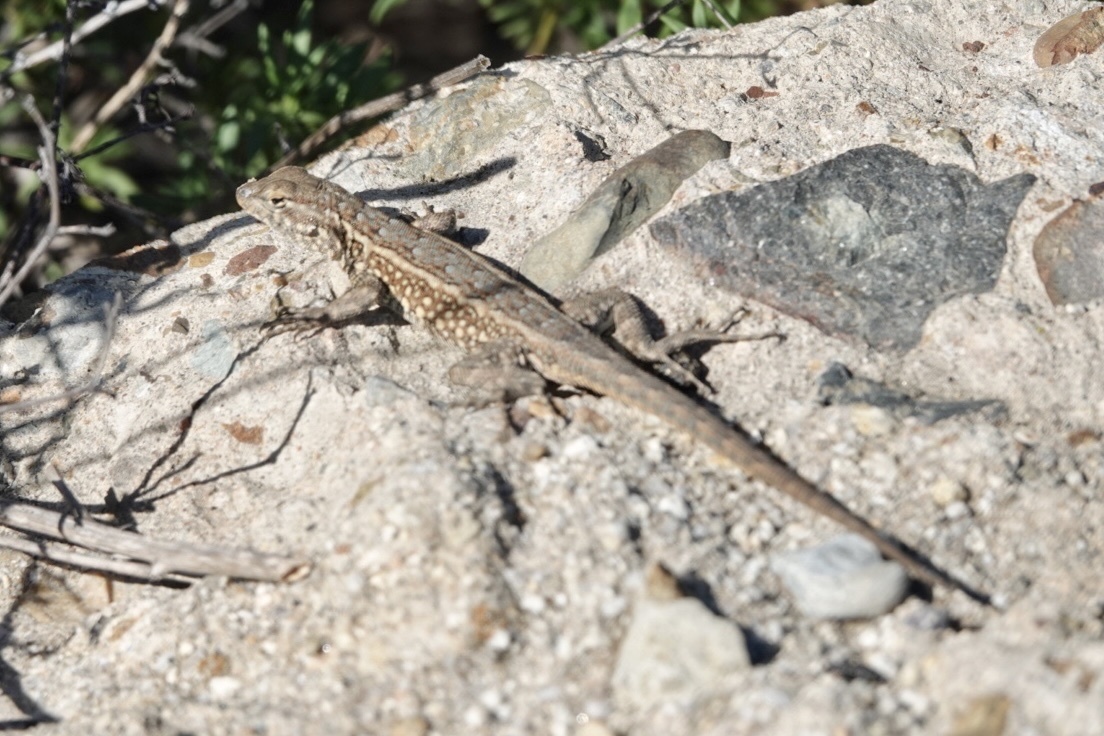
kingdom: Animalia
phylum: Chordata
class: Squamata
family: Phrynosomatidae
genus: Uta
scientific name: Uta stansburiana
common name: Side-blotched lizard
